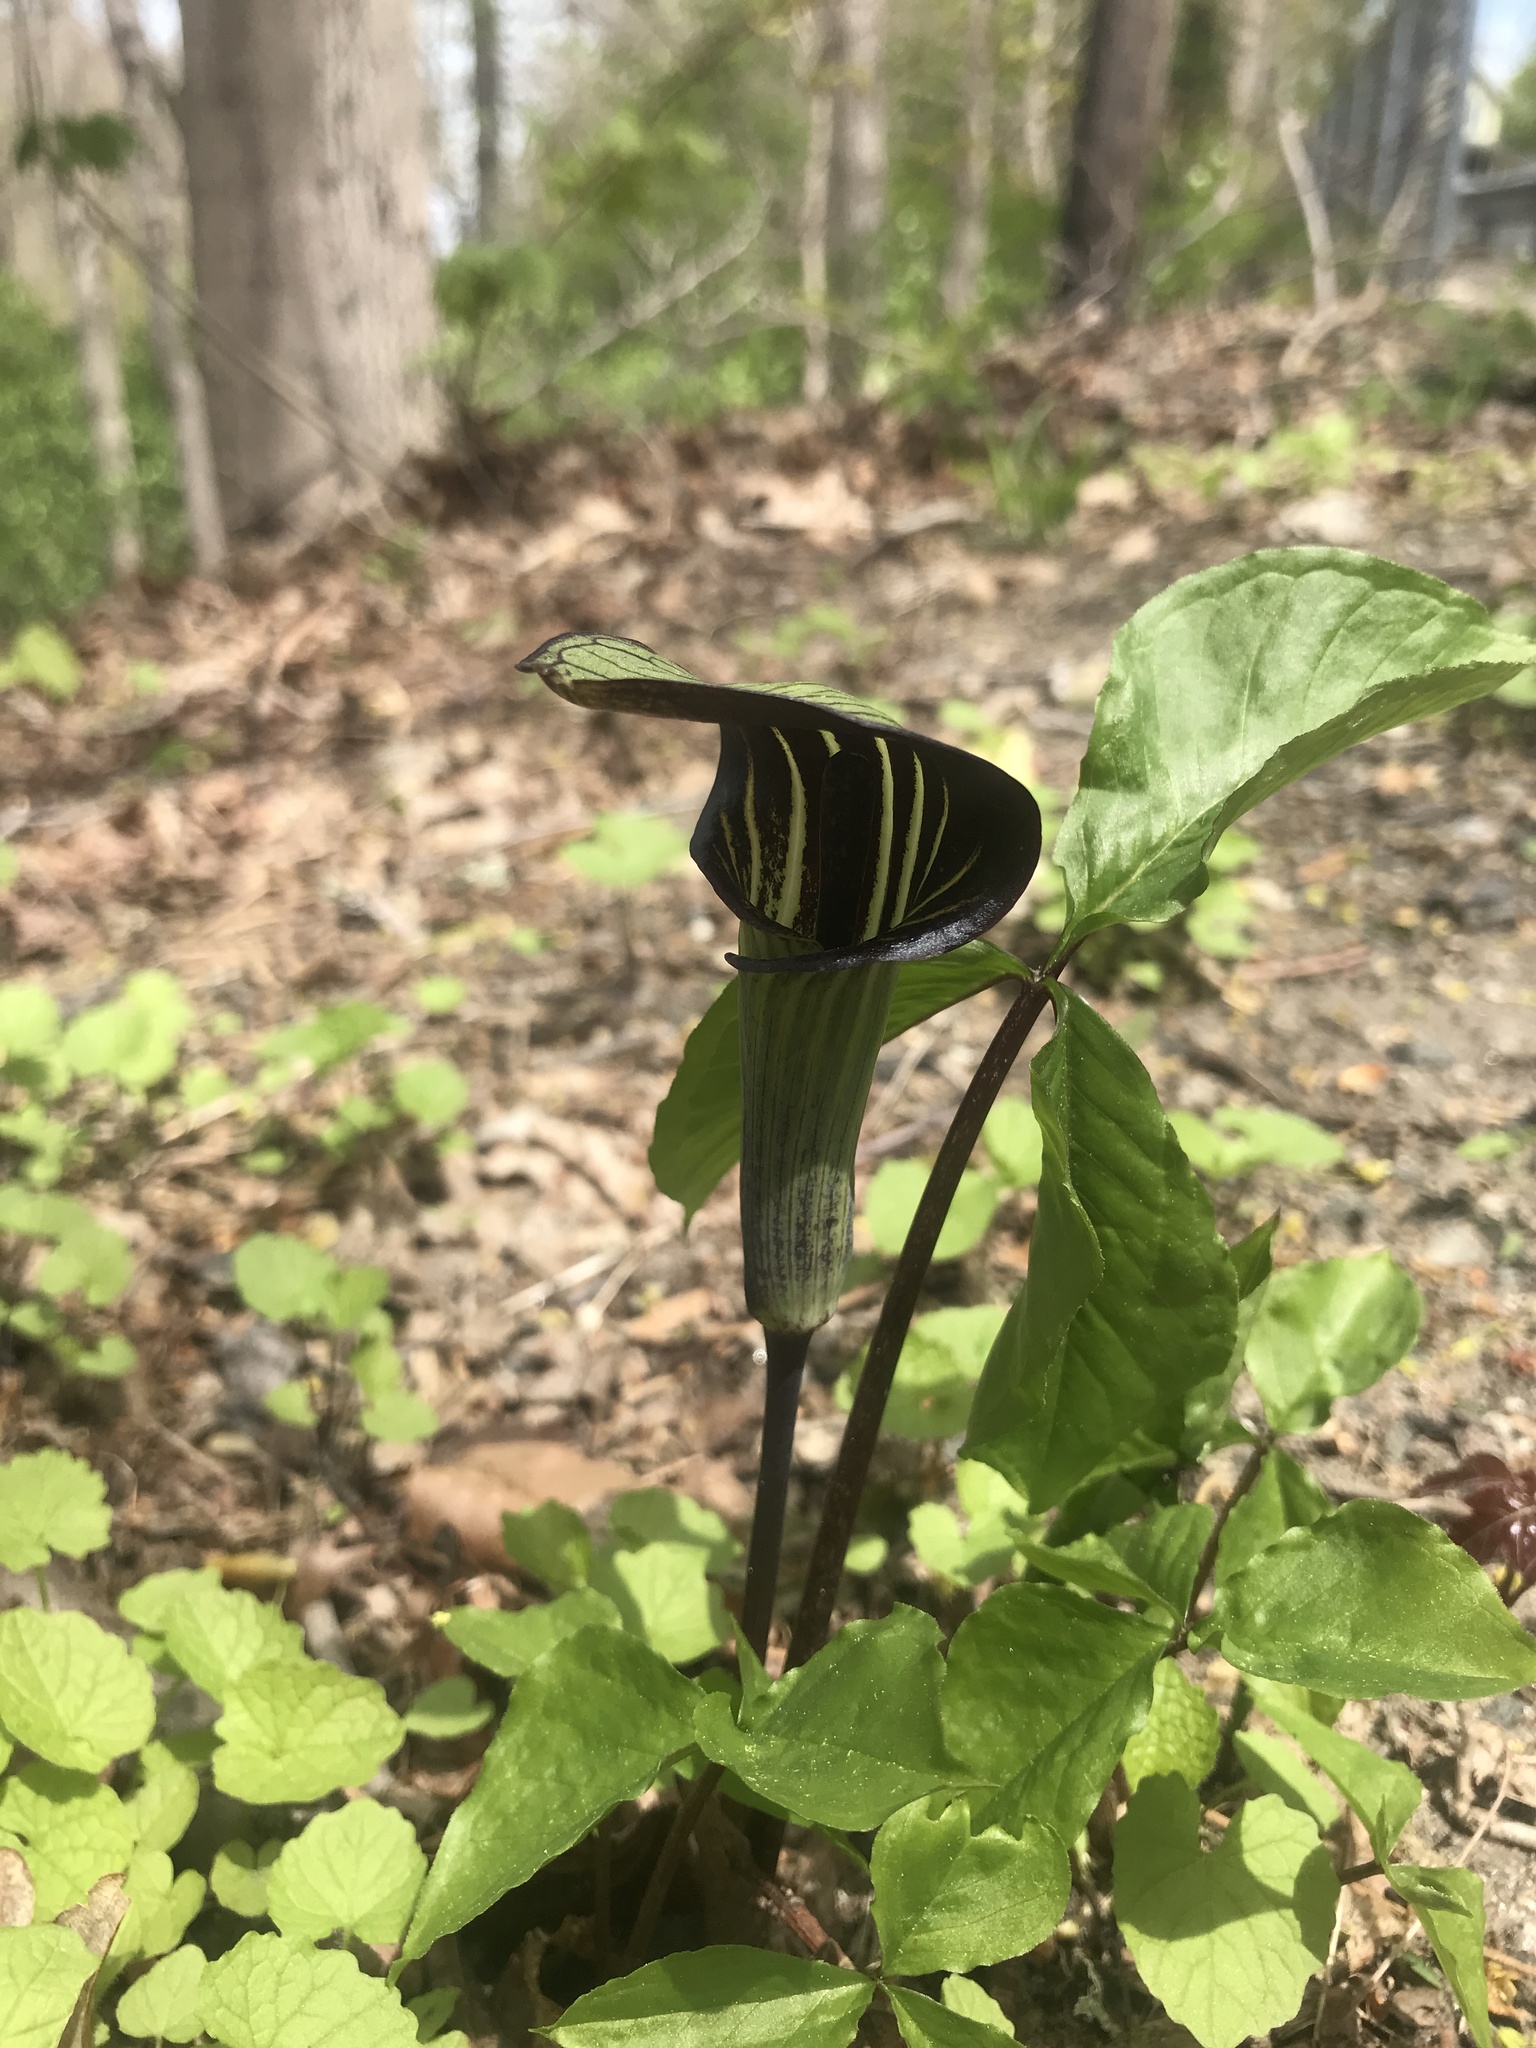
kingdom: Plantae
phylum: Tracheophyta
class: Liliopsida
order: Alismatales
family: Araceae
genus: Arisaema
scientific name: Arisaema triphyllum
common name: Jack-in-the-pulpit
